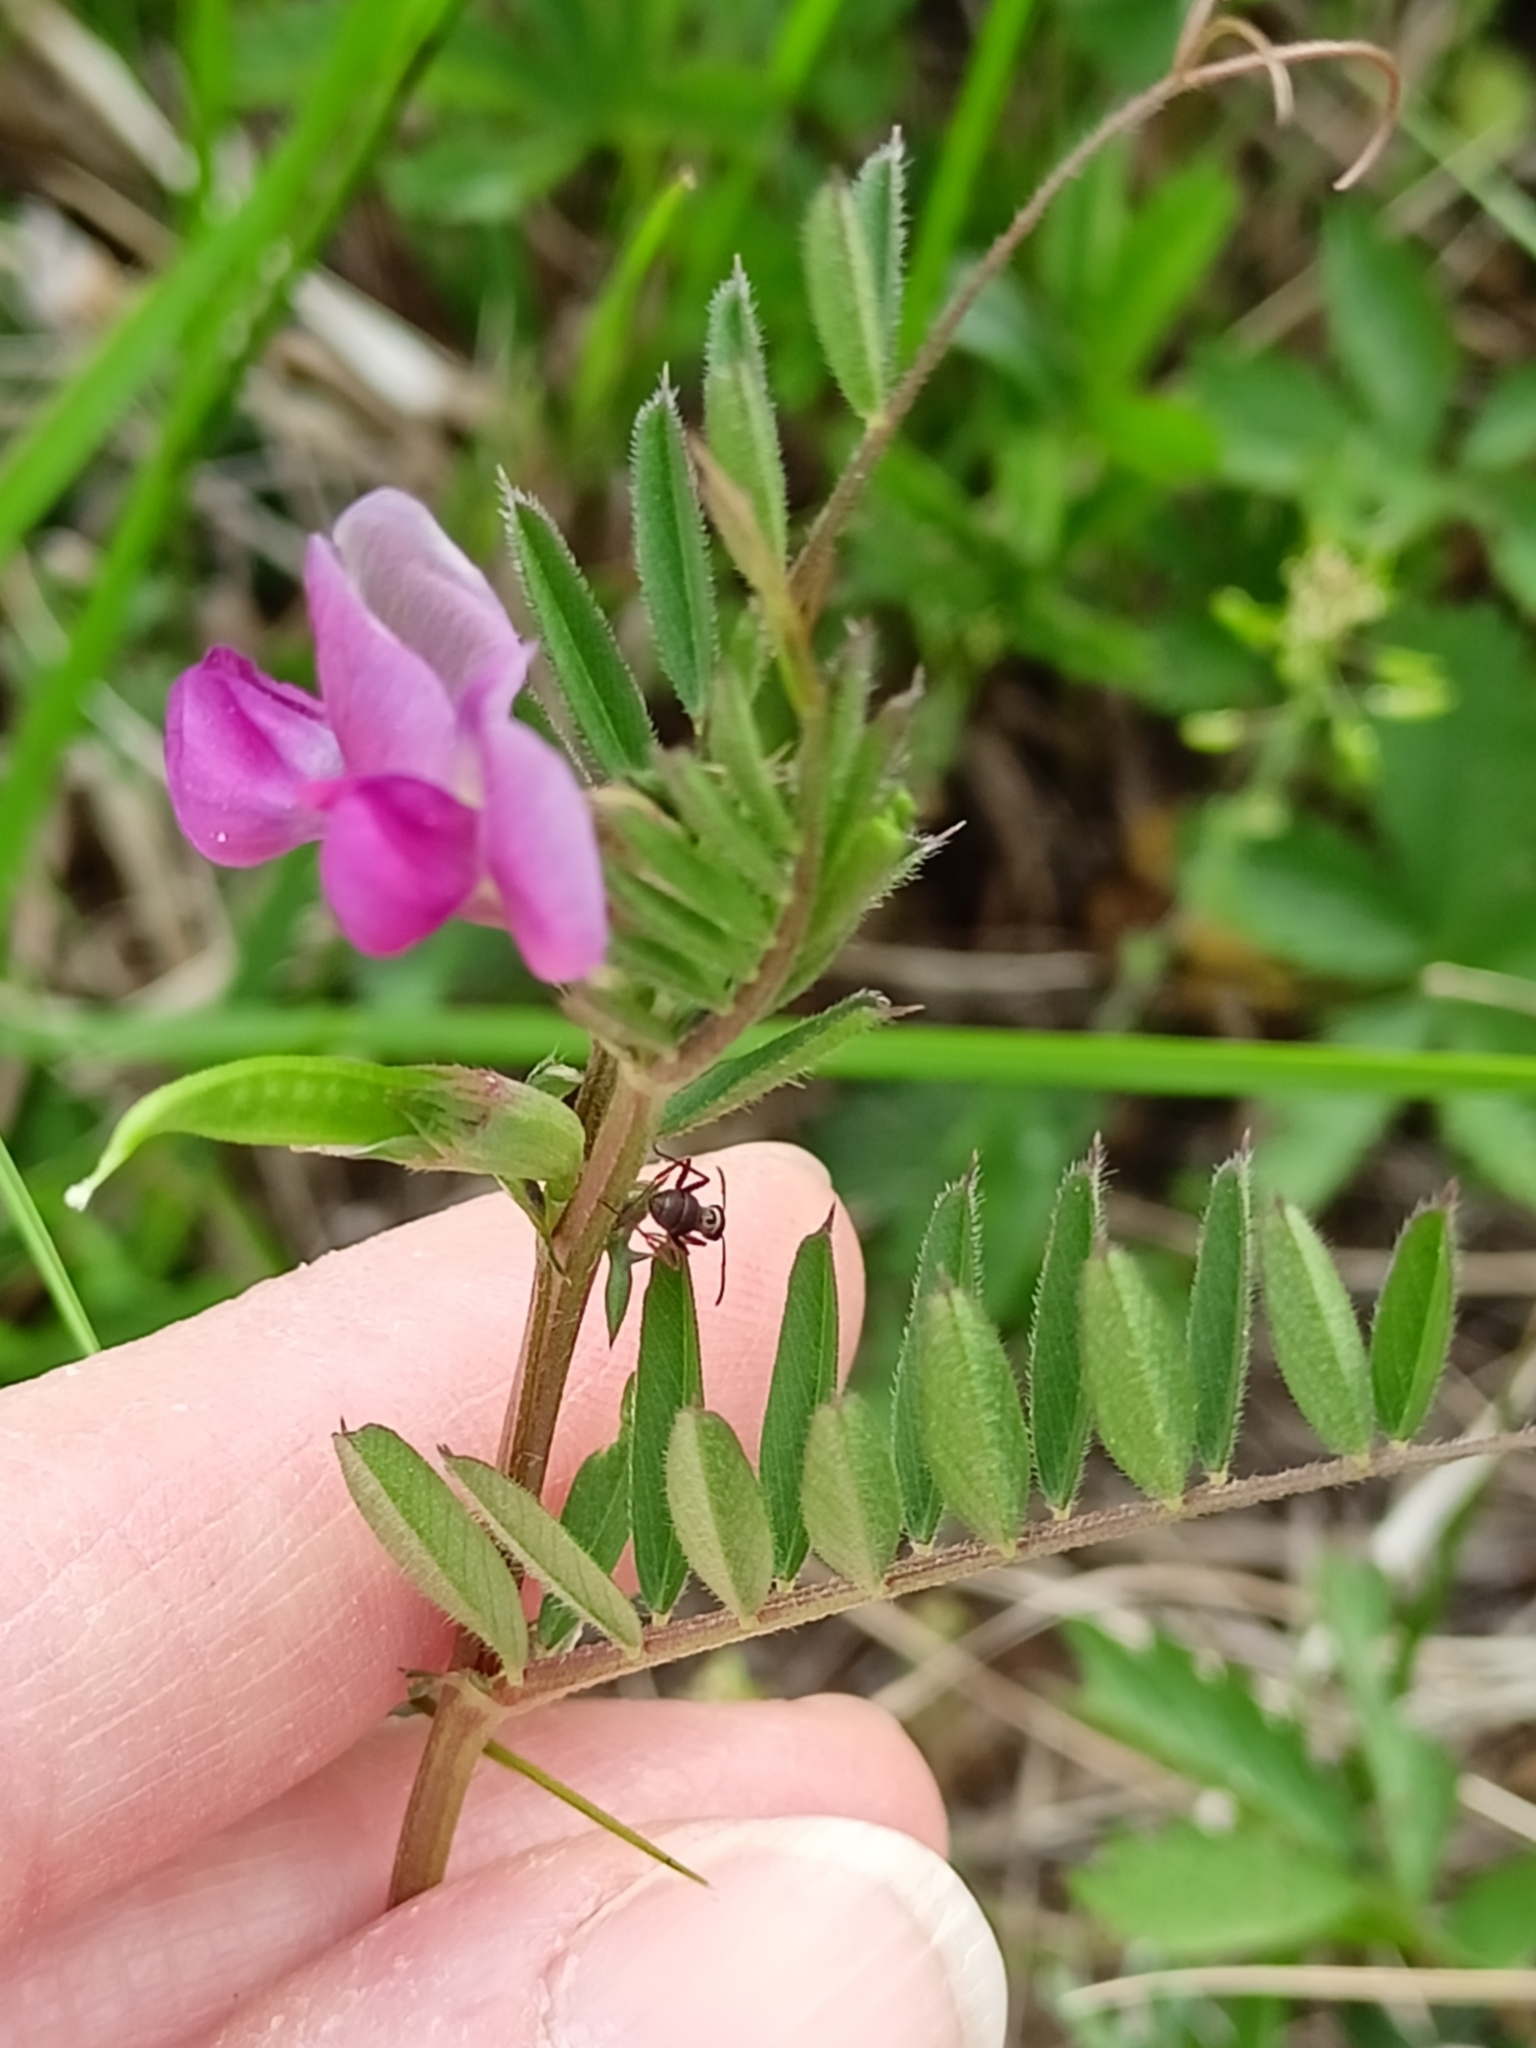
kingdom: Plantae
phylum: Tracheophyta
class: Magnoliopsida
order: Fabales
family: Fabaceae
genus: Vicia
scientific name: Vicia sativa
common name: Garden vetch
